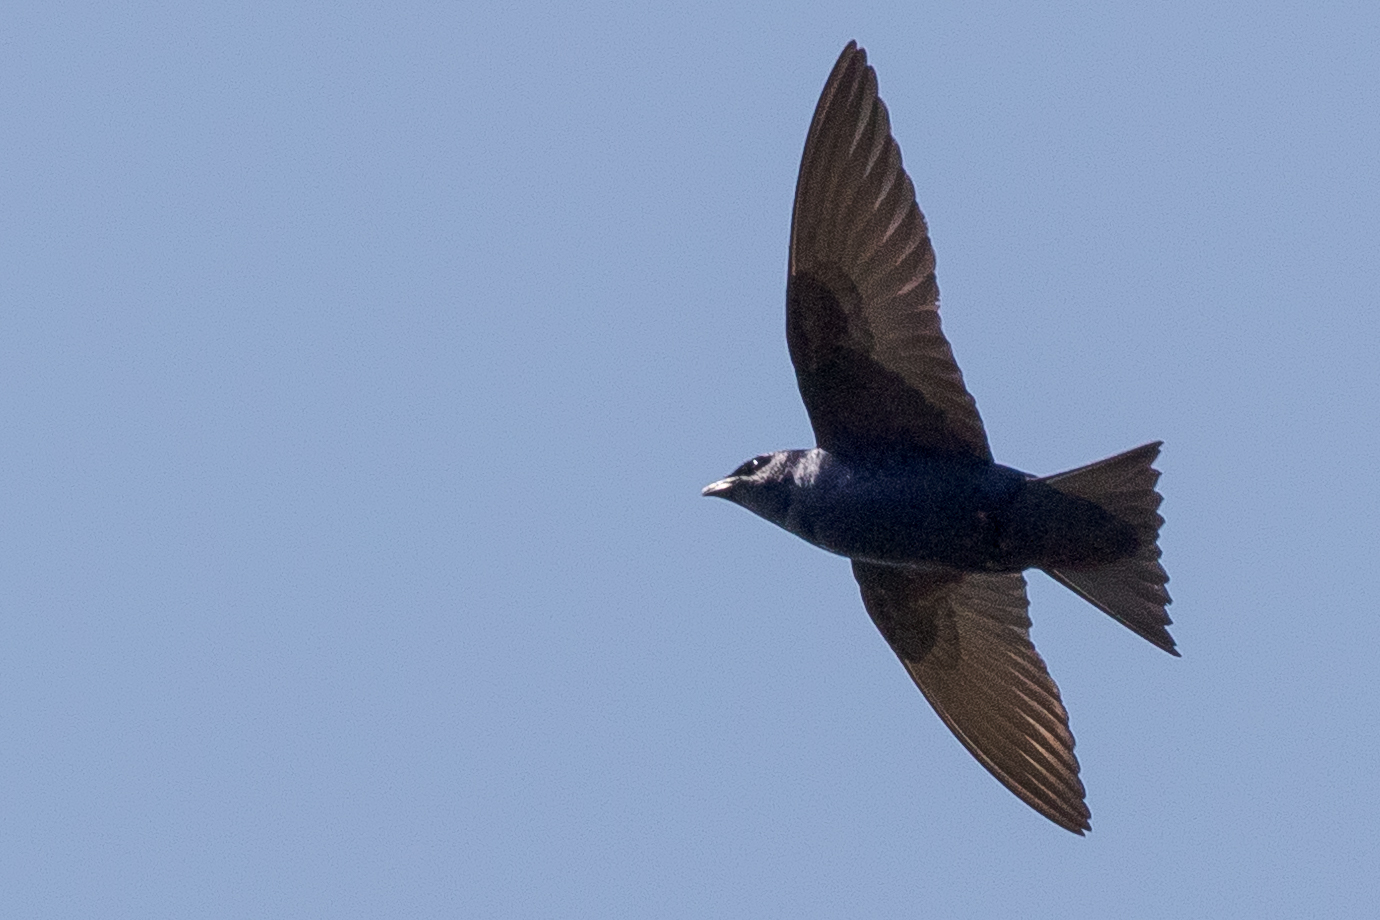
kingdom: Animalia
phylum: Chordata
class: Aves
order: Passeriformes
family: Hirundinidae
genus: Progne
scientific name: Progne subis
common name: Purple martin
